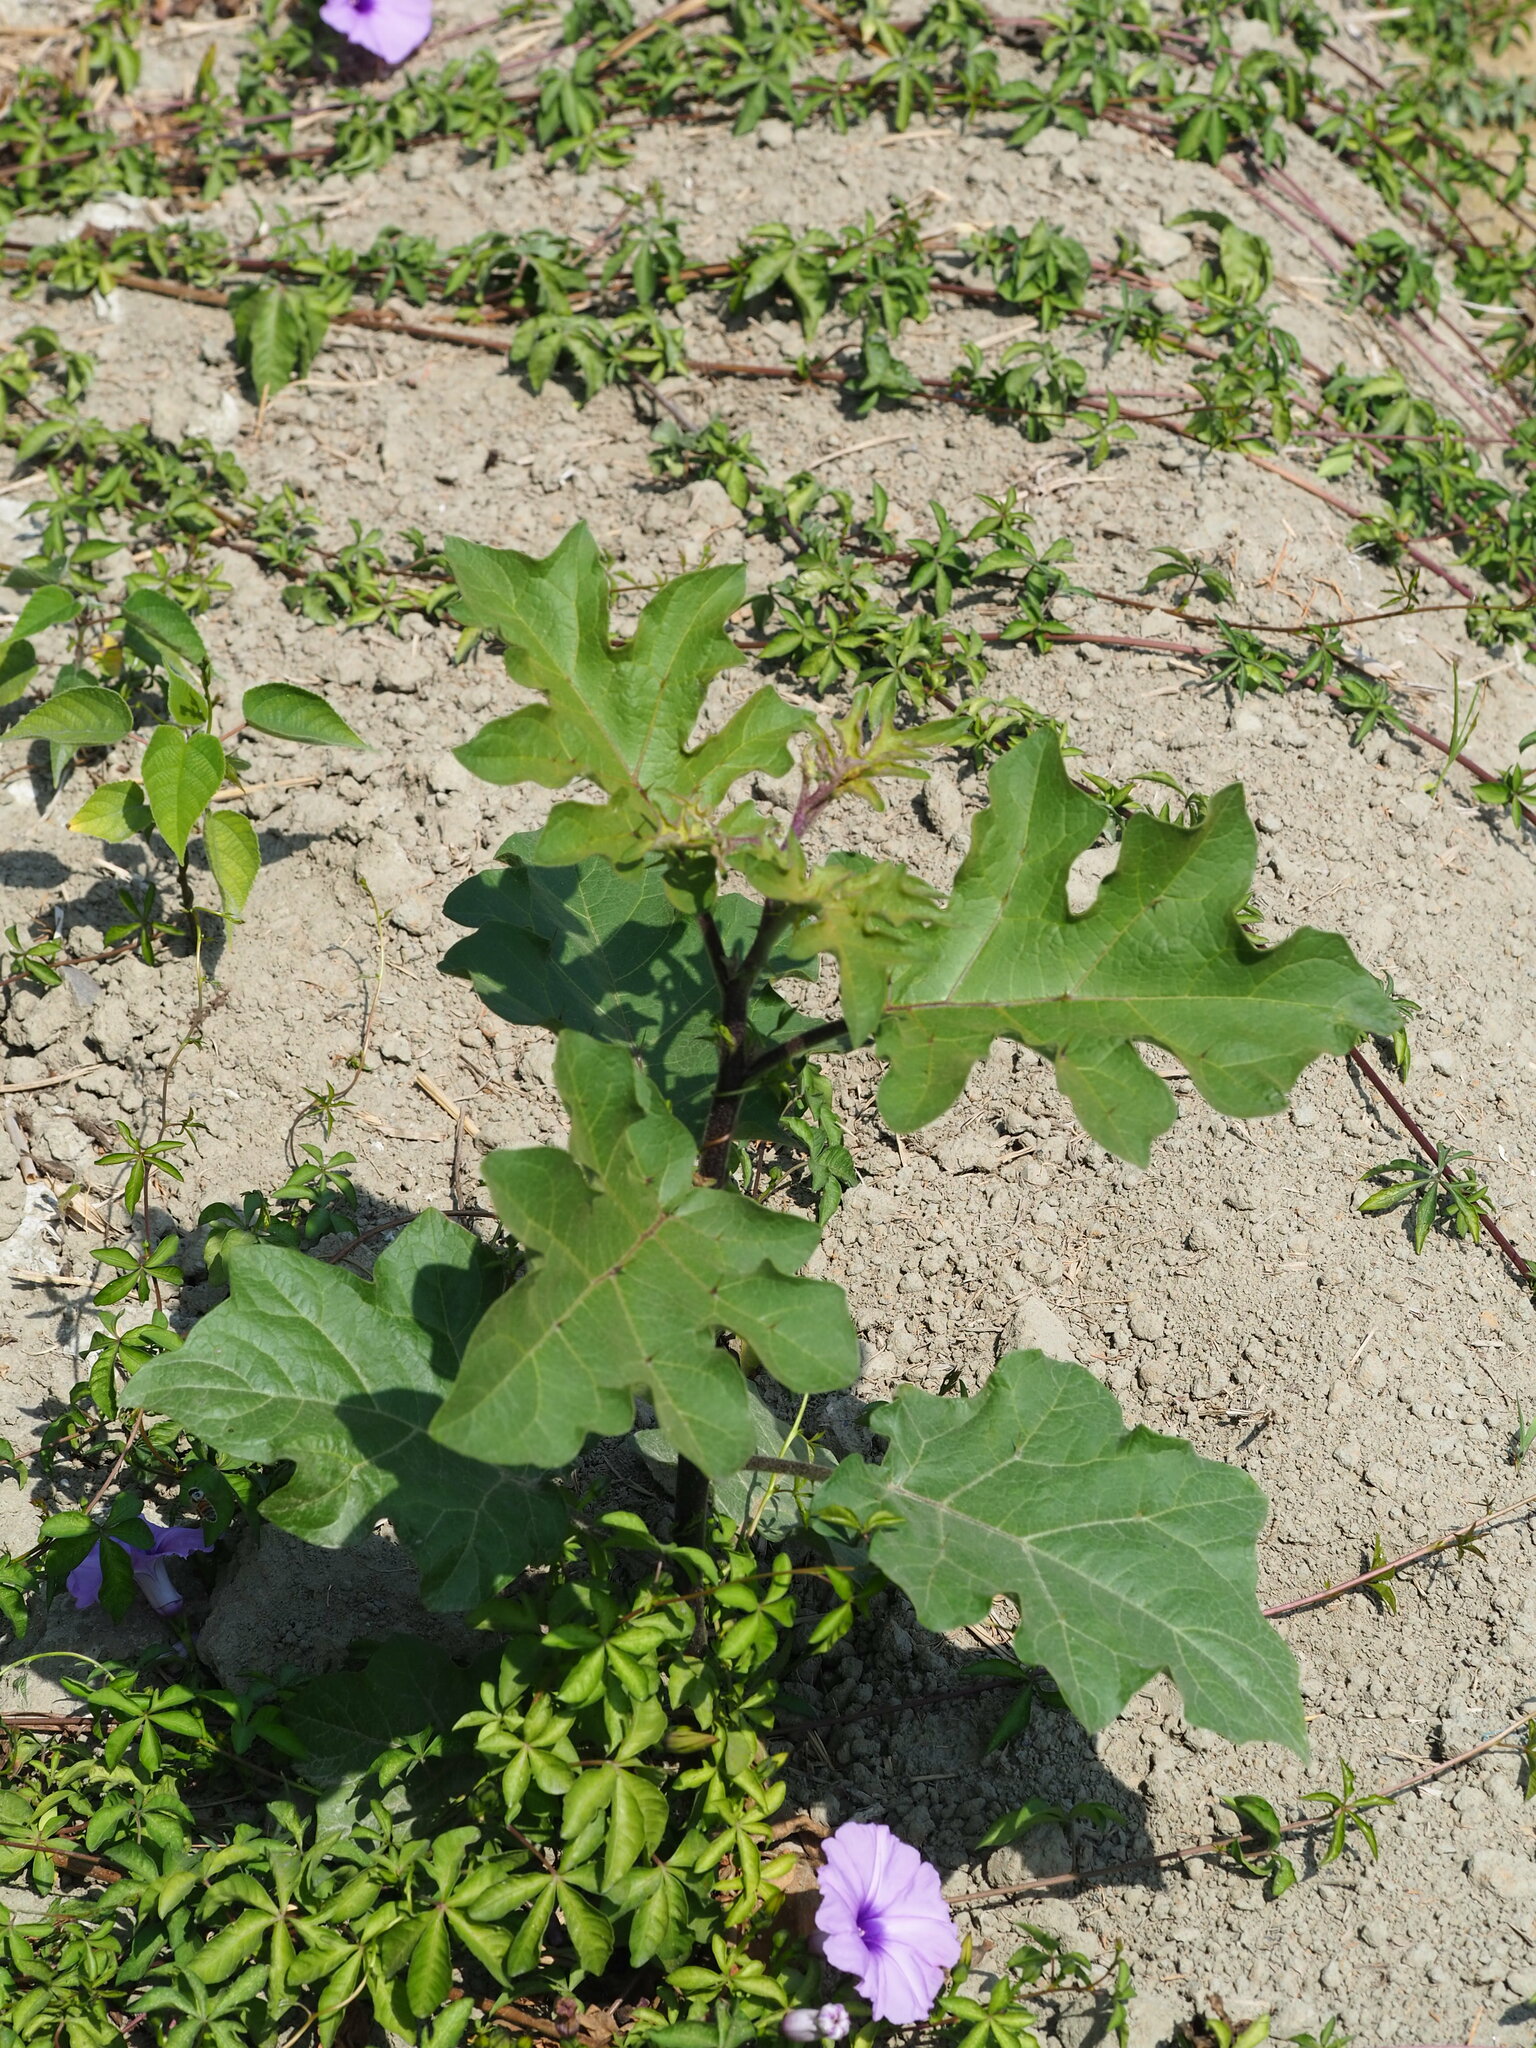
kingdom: Plantae
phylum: Tracheophyta
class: Magnoliopsida
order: Solanales
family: Solanaceae
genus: Solanum
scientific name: Solanum torvum
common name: Turkey berry
